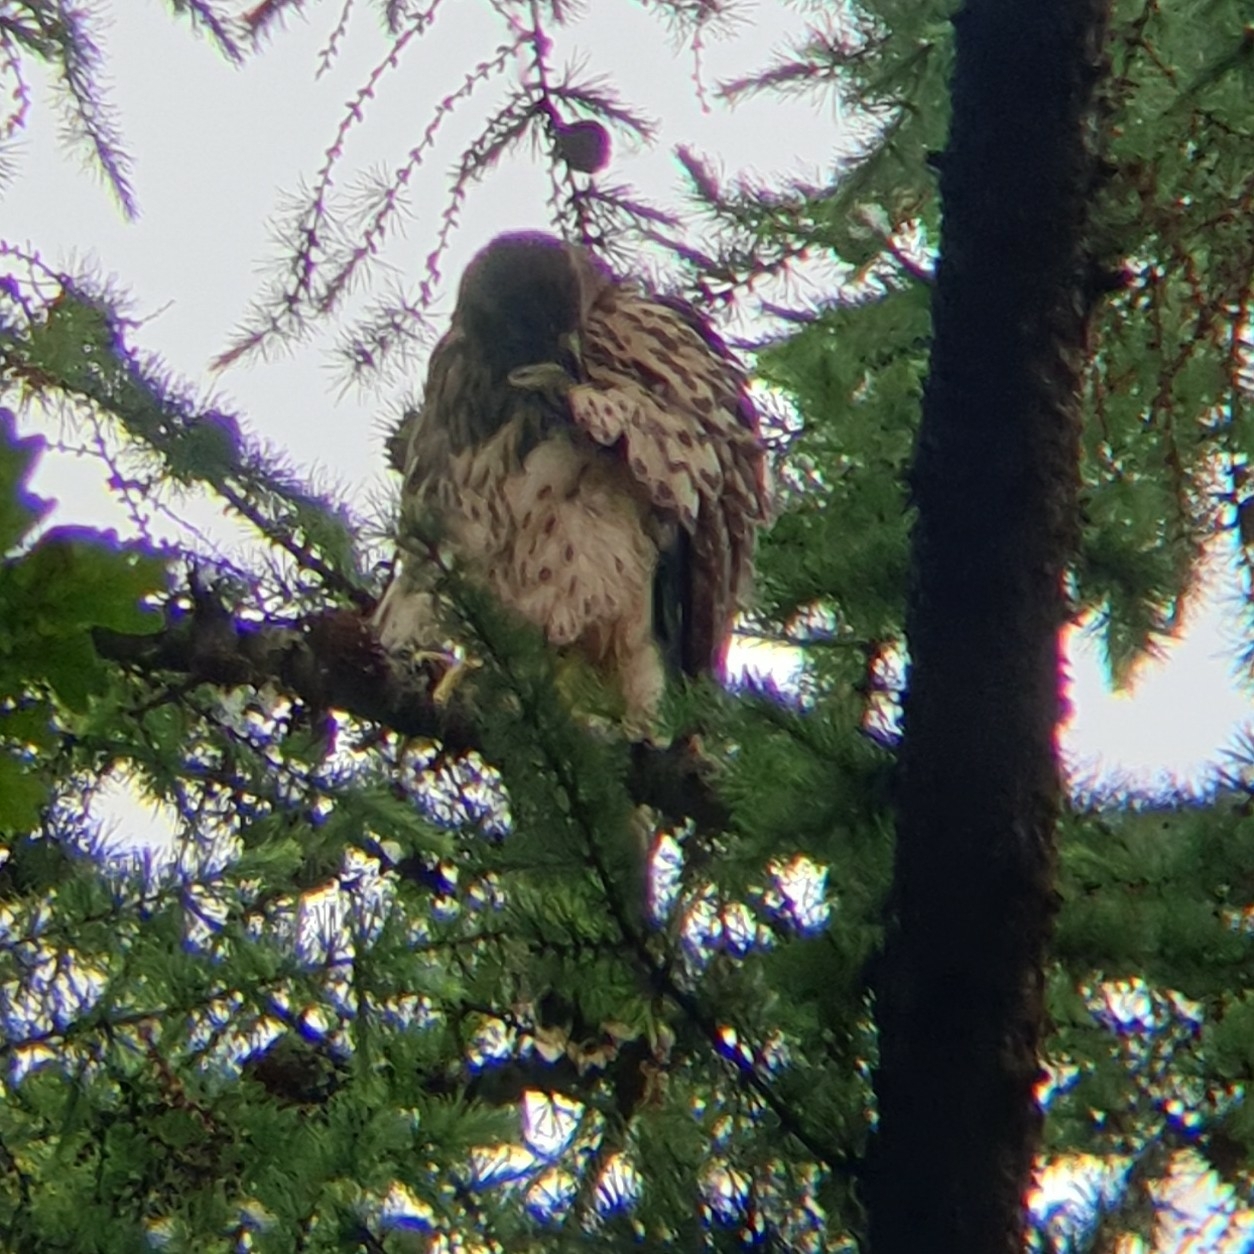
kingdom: Animalia
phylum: Chordata
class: Aves
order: Accipitriformes
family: Accipitridae
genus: Accipiter
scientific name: Accipiter gentilis
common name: Northern goshawk
